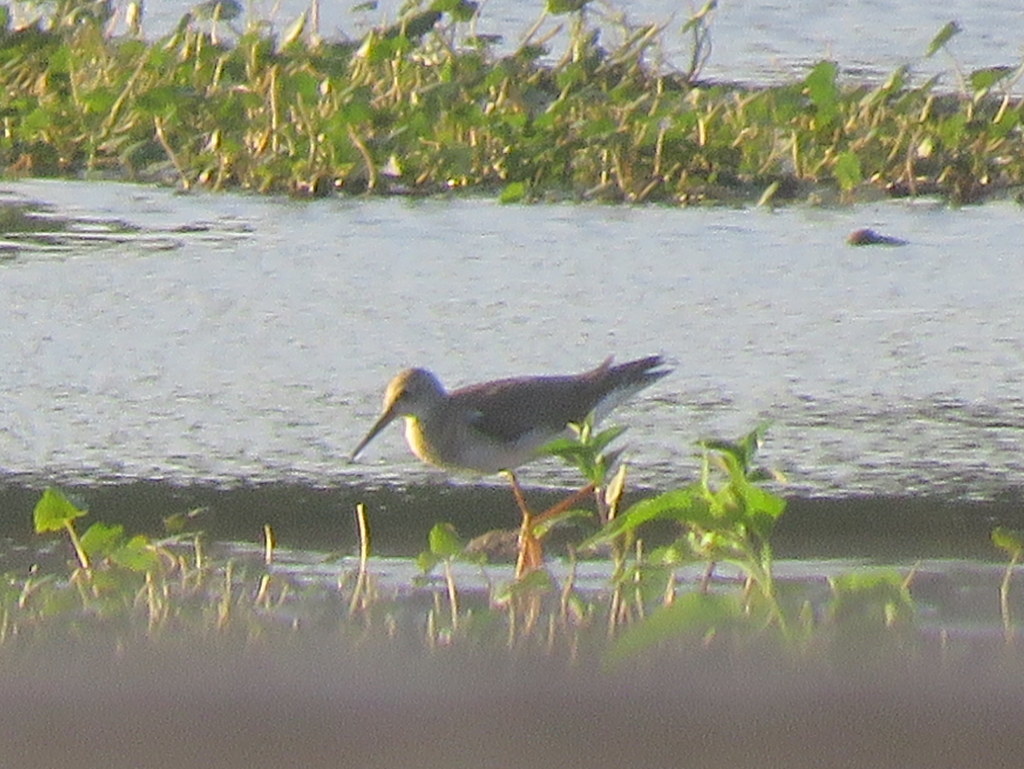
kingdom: Animalia
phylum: Chordata
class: Aves
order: Charadriiformes
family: Scolopacidae
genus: Tringa
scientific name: Tringa flavipes
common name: Lesser yellowlegs
